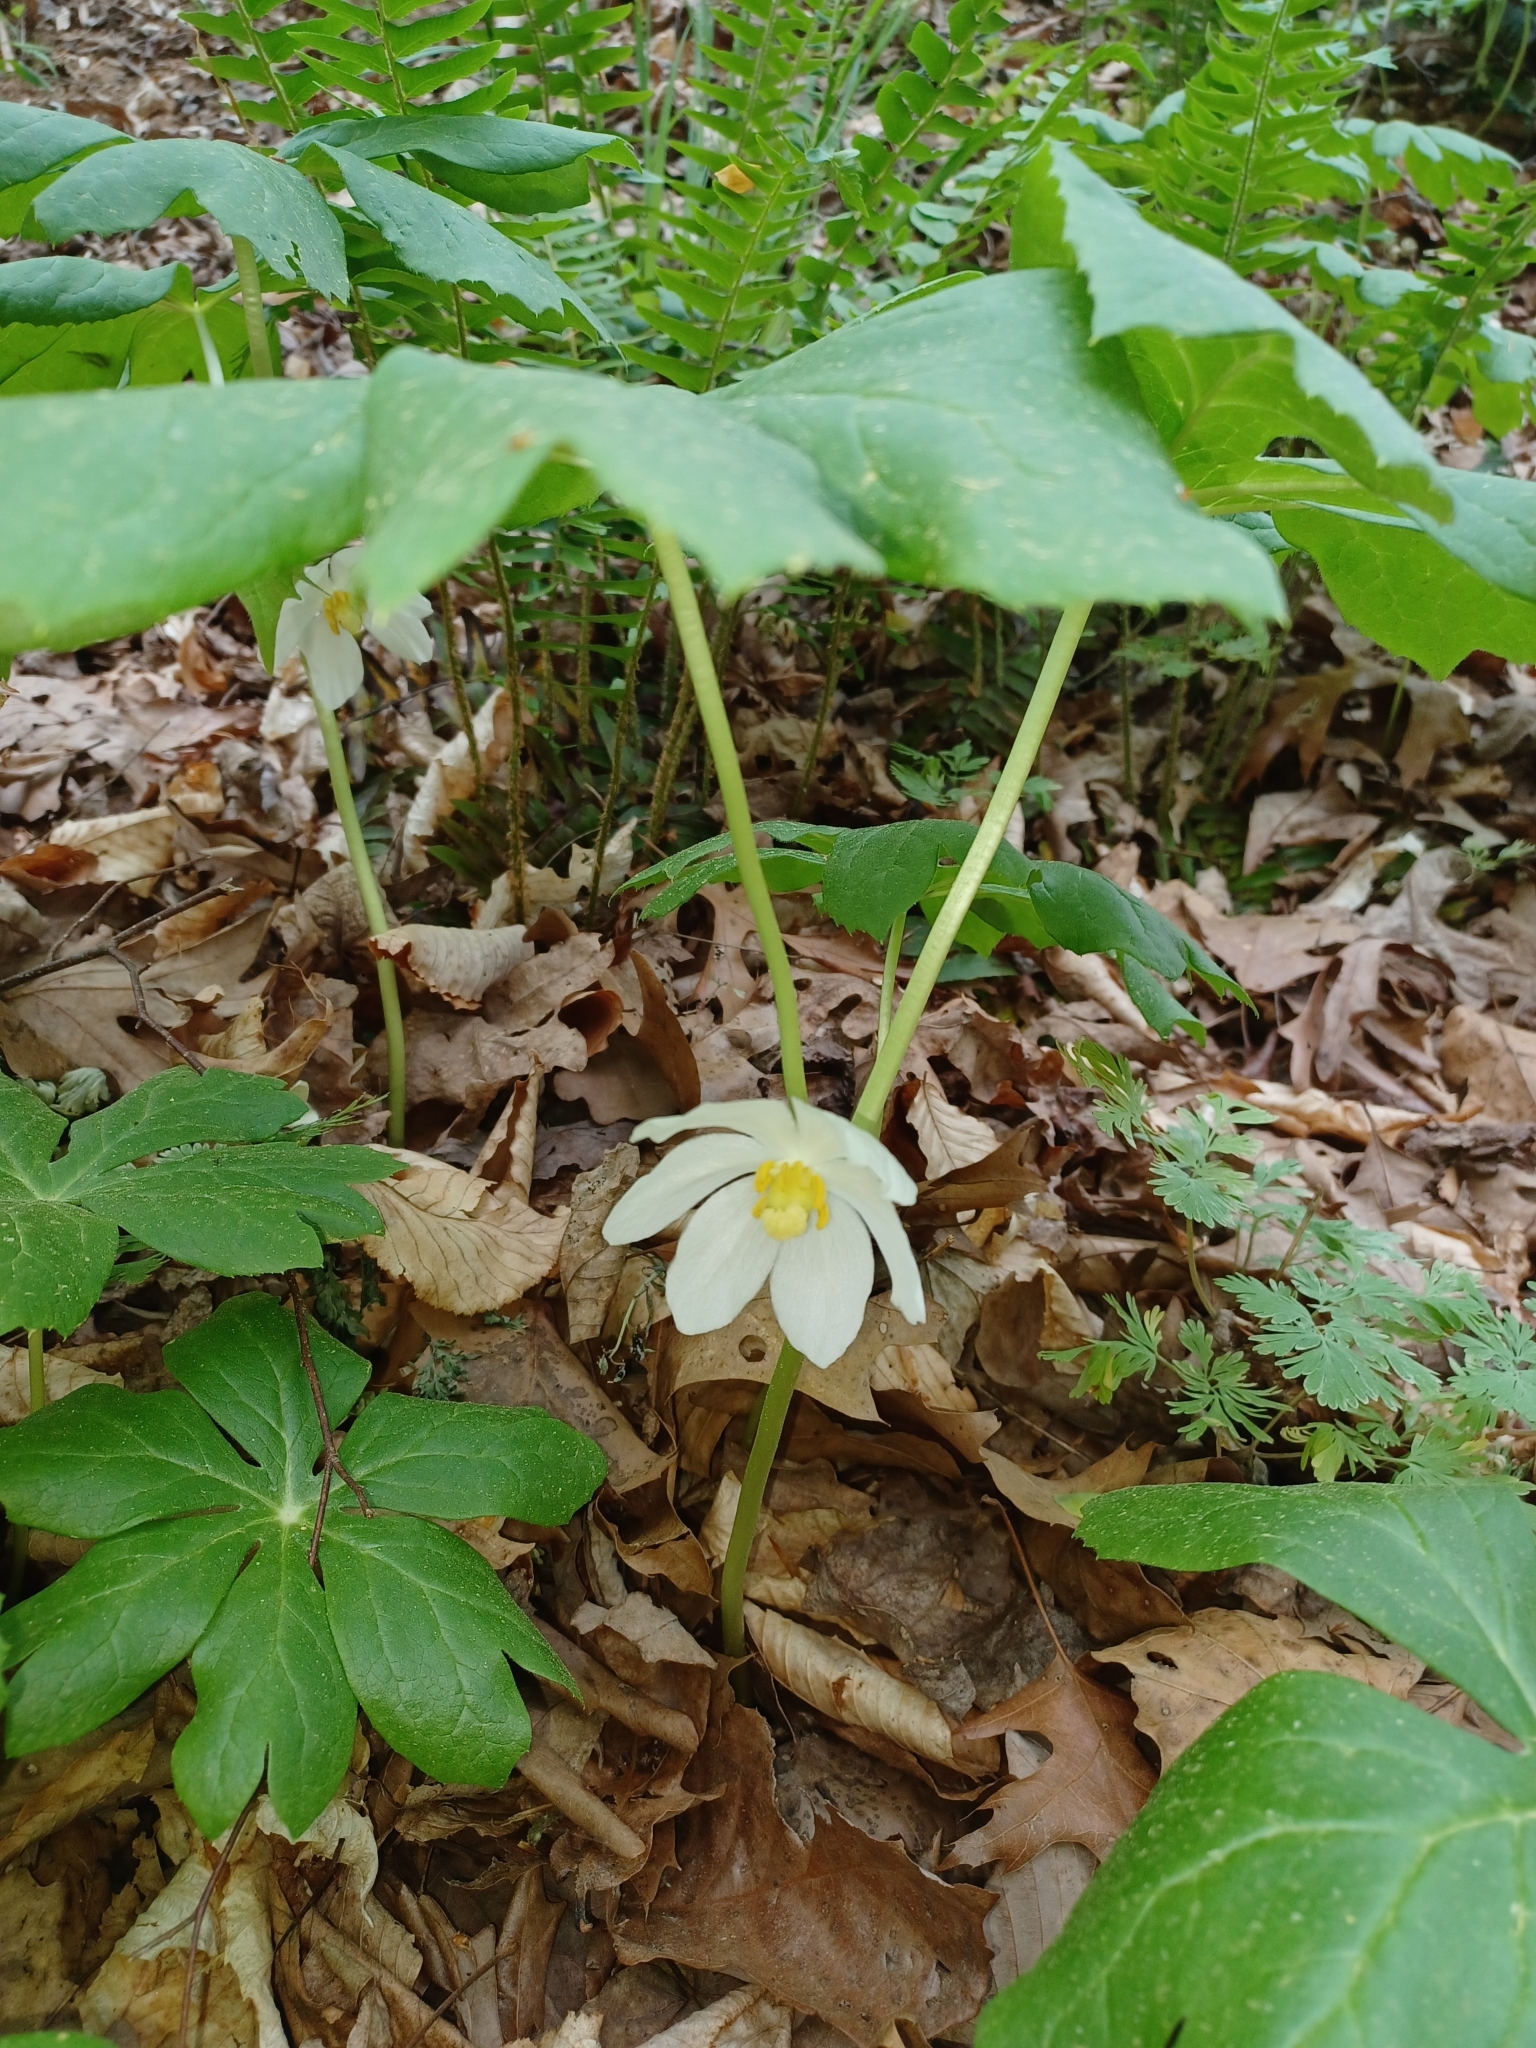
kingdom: Plantae
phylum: Tracheophyta
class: Magnoliopsida
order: Ranunculales
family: Berberidaceae
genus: Podophyllum
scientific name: Podophyllum peltatum
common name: Wild mandrake
